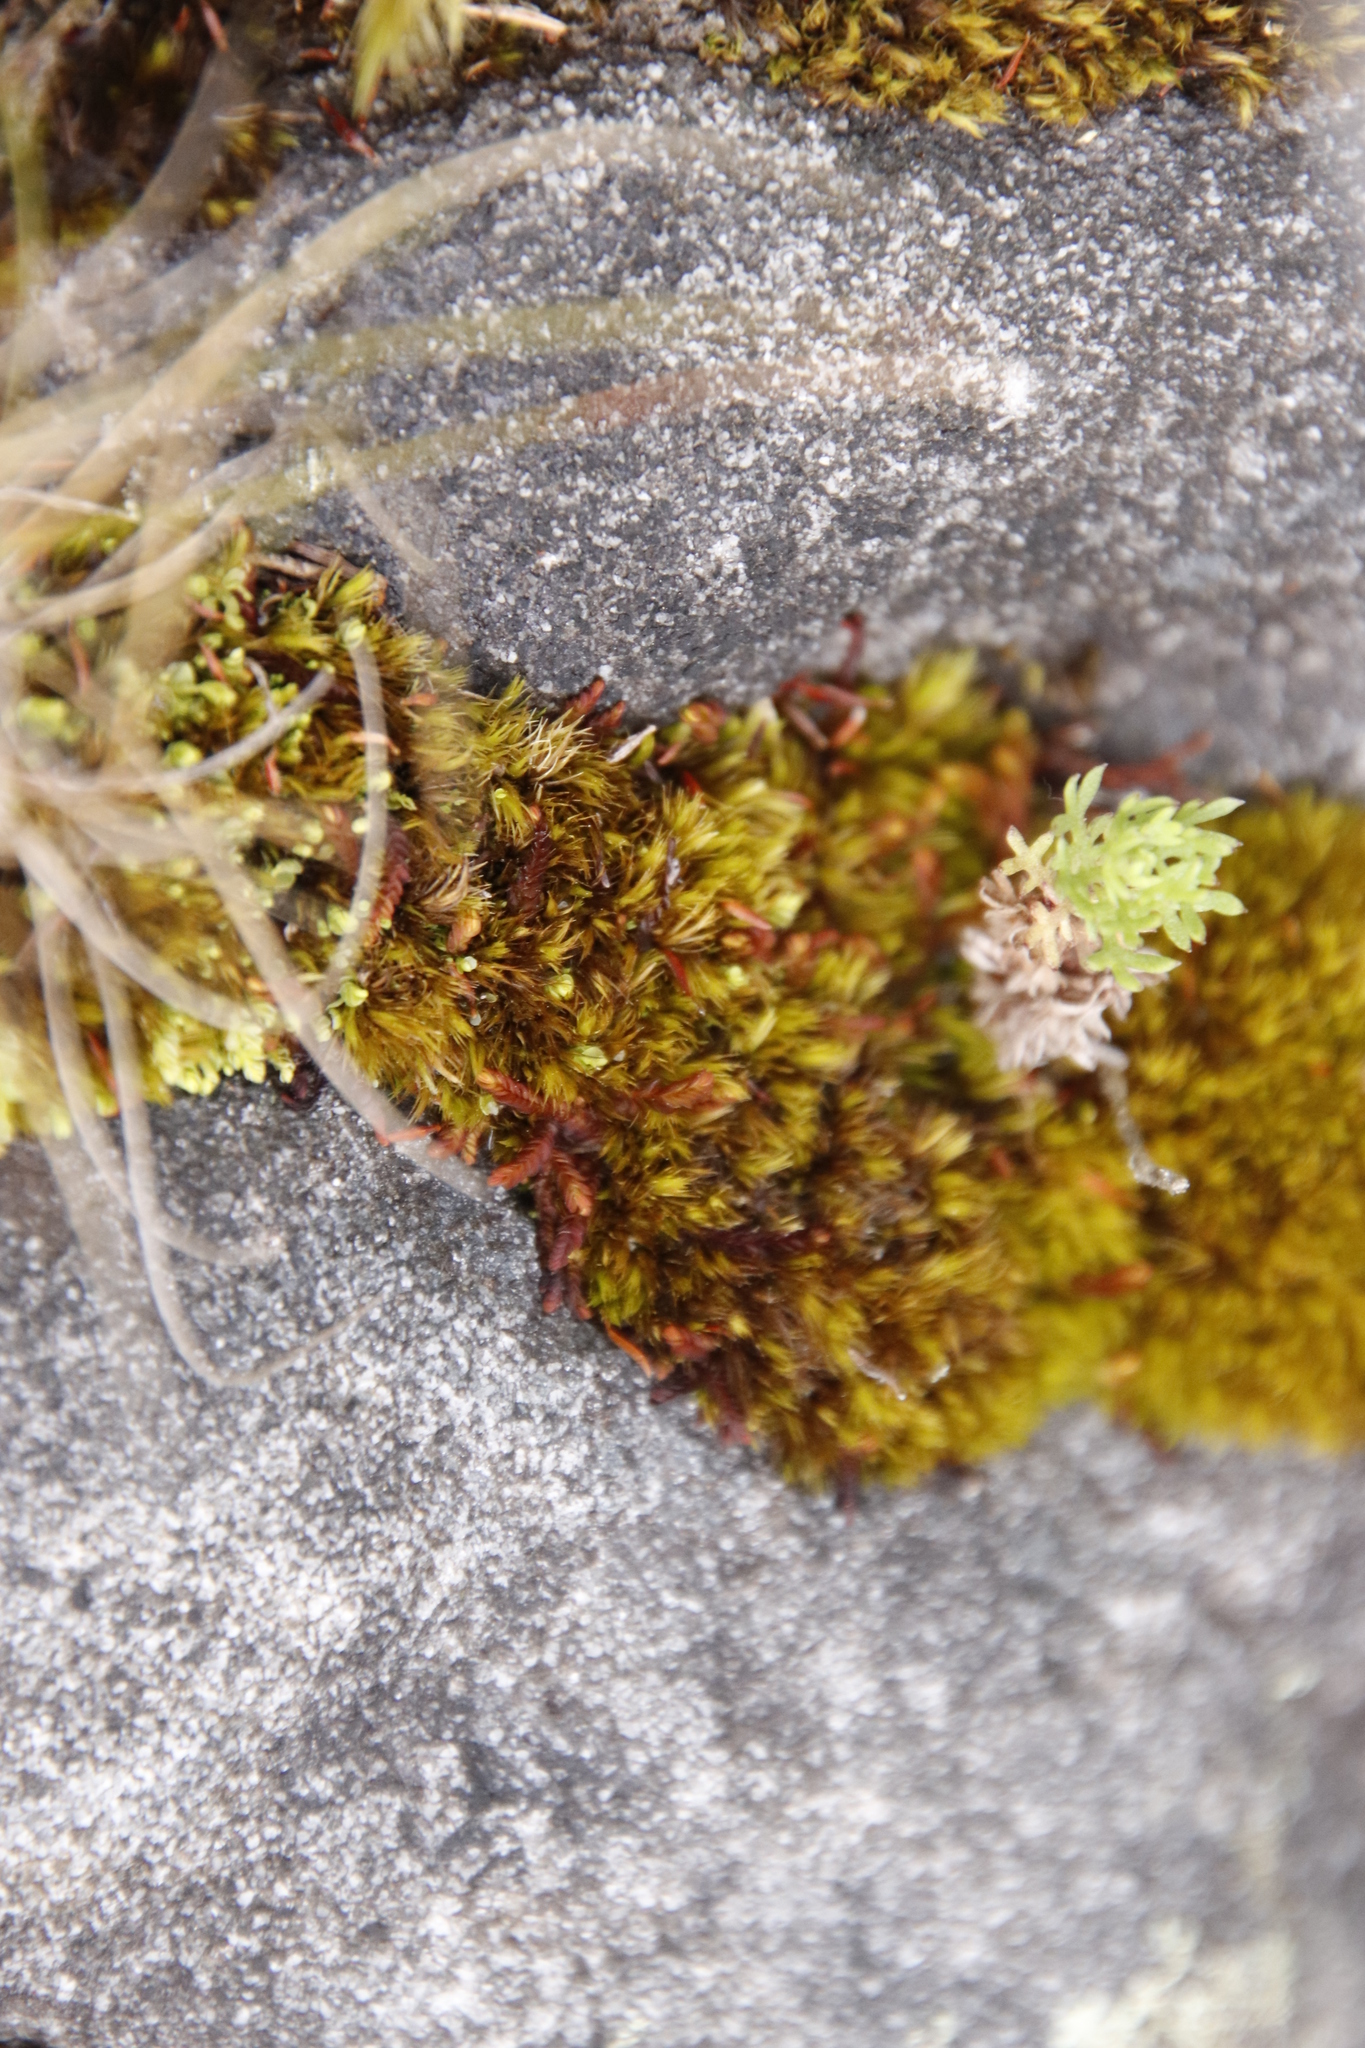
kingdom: Plantae
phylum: Bryophyta
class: Bryopsida
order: Dicranales
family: Dicranaceae
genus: Leucoloma
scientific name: Leucoloma sprengelianum
